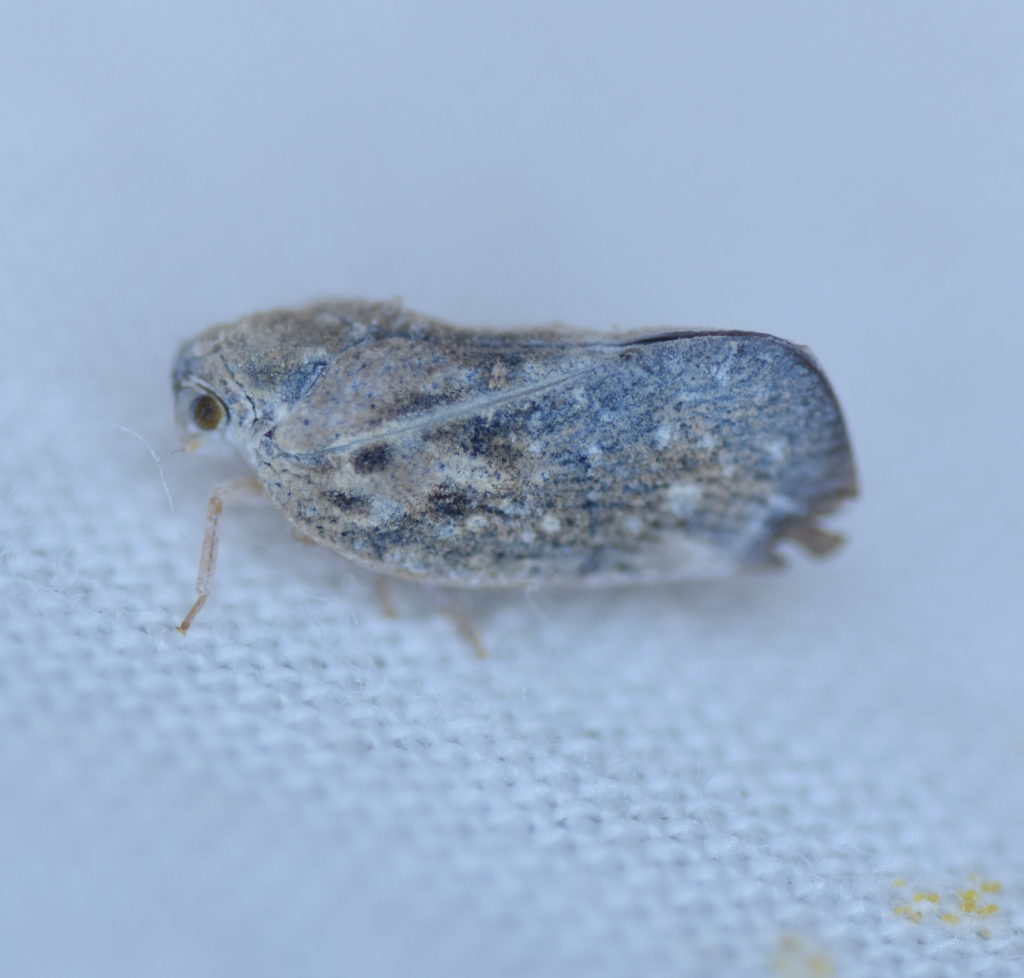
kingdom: Animalia
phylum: Arthropoda
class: Insecta
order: Hemiptera
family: Flatidae
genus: Metcalfa
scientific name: Metcalfa pruinosa
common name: Citrus flatid planthopper
